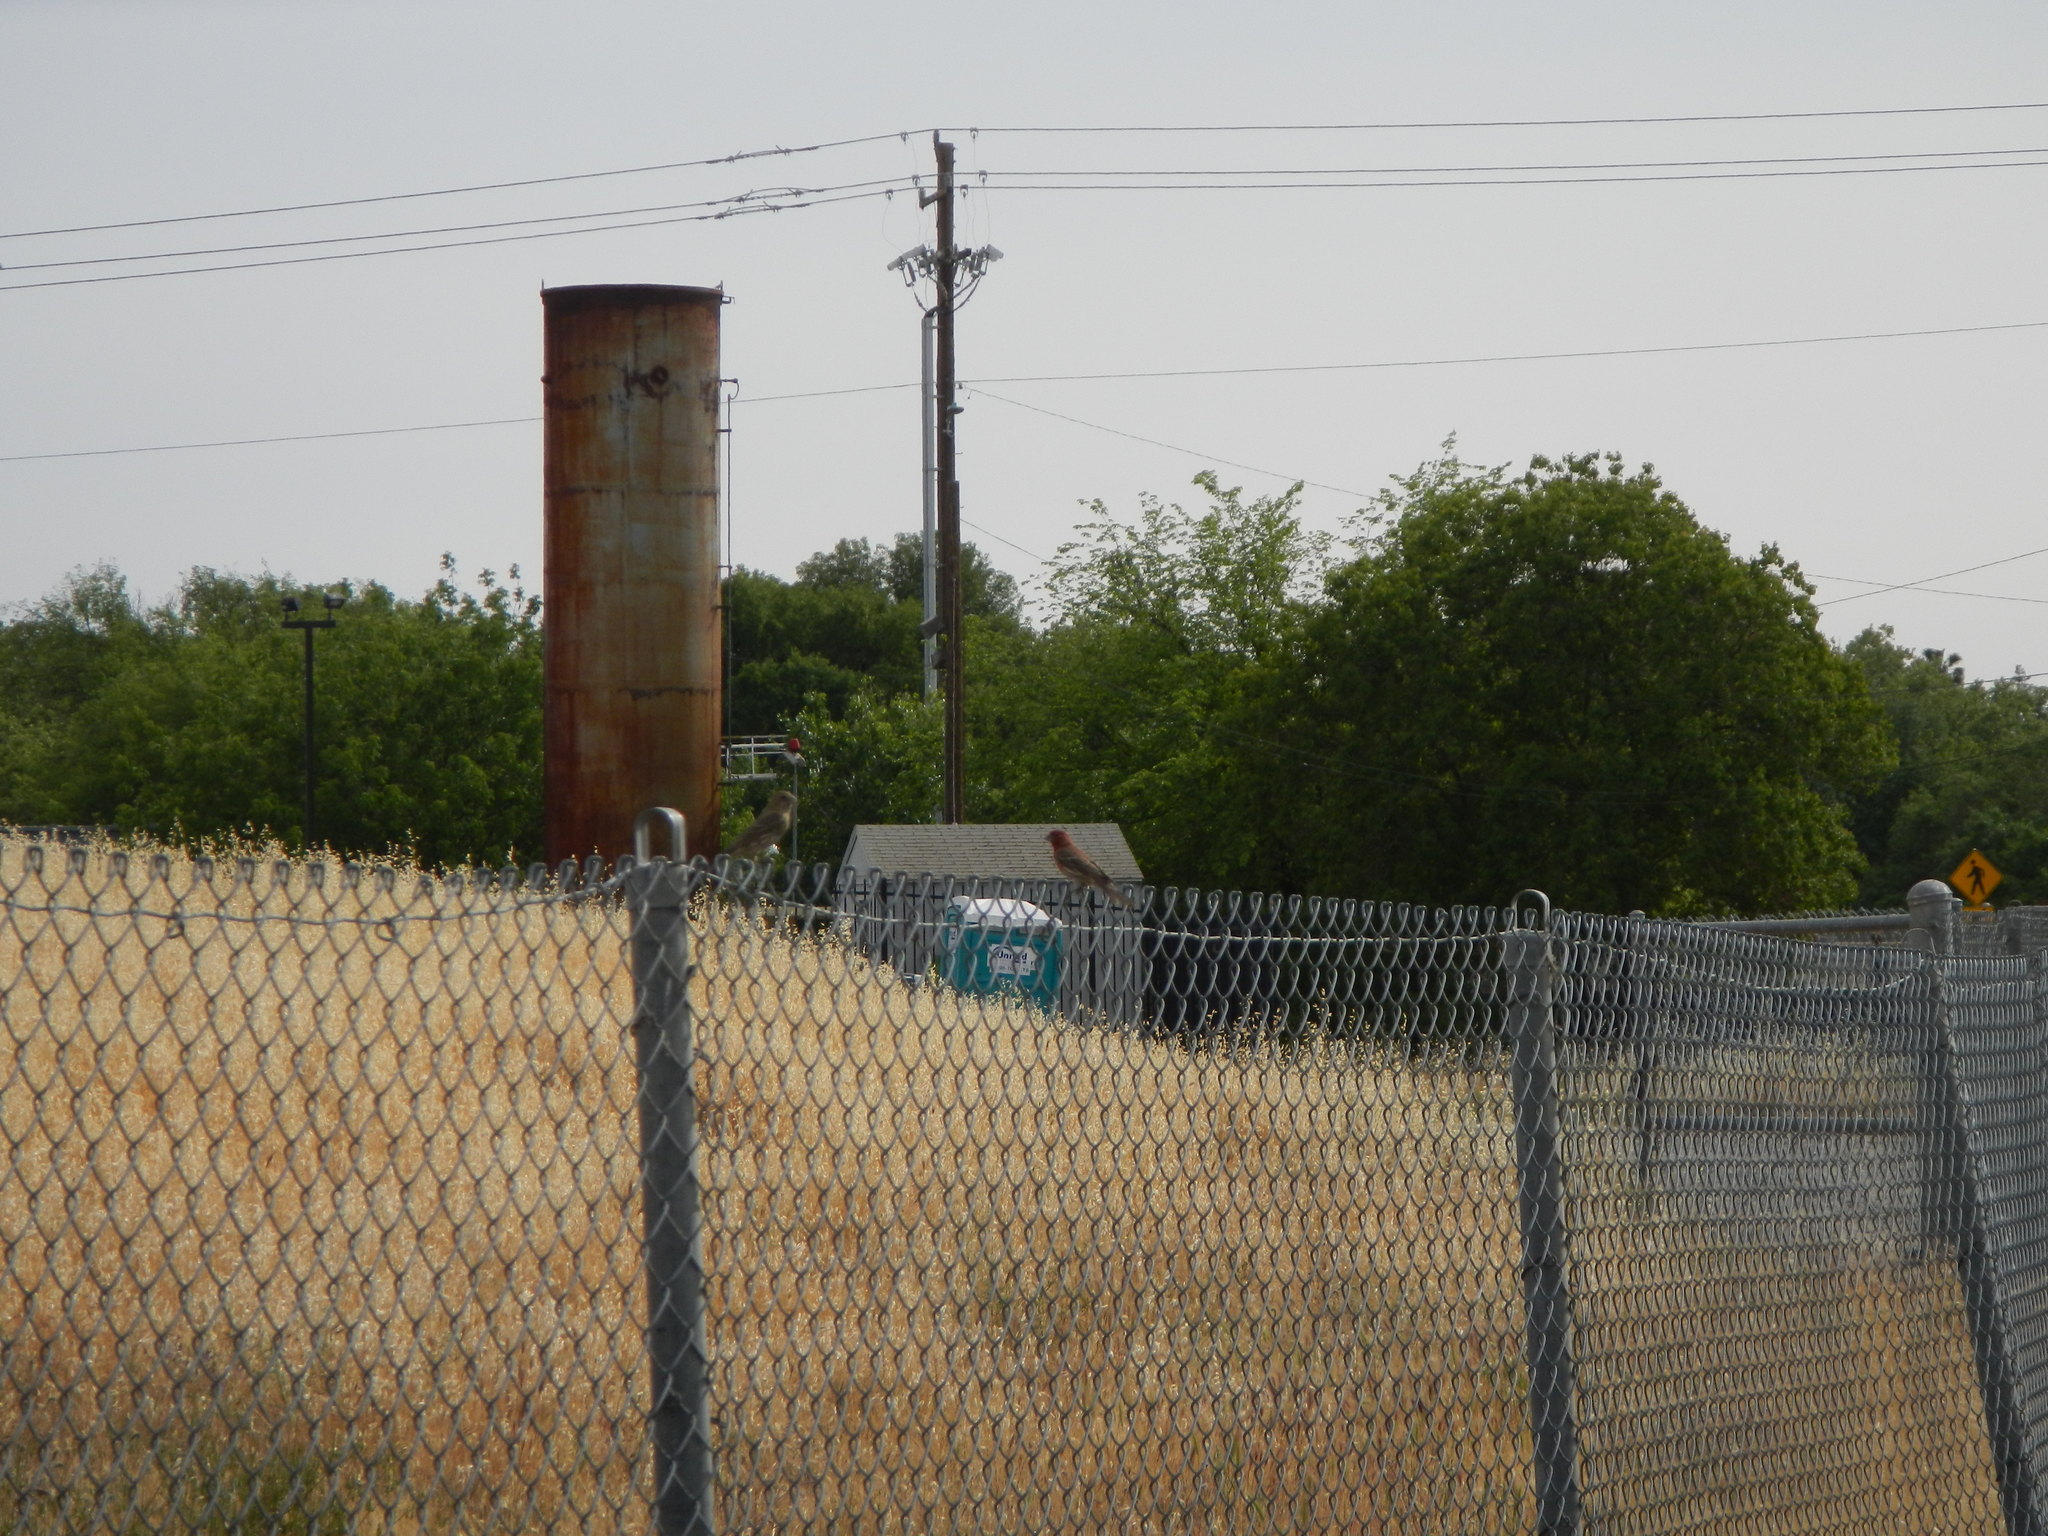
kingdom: Animalia
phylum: Chordata
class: Aves
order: Passeriformes
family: Fringillidae
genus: Haemorhous
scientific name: Haemorhous mexicanus
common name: House finch
